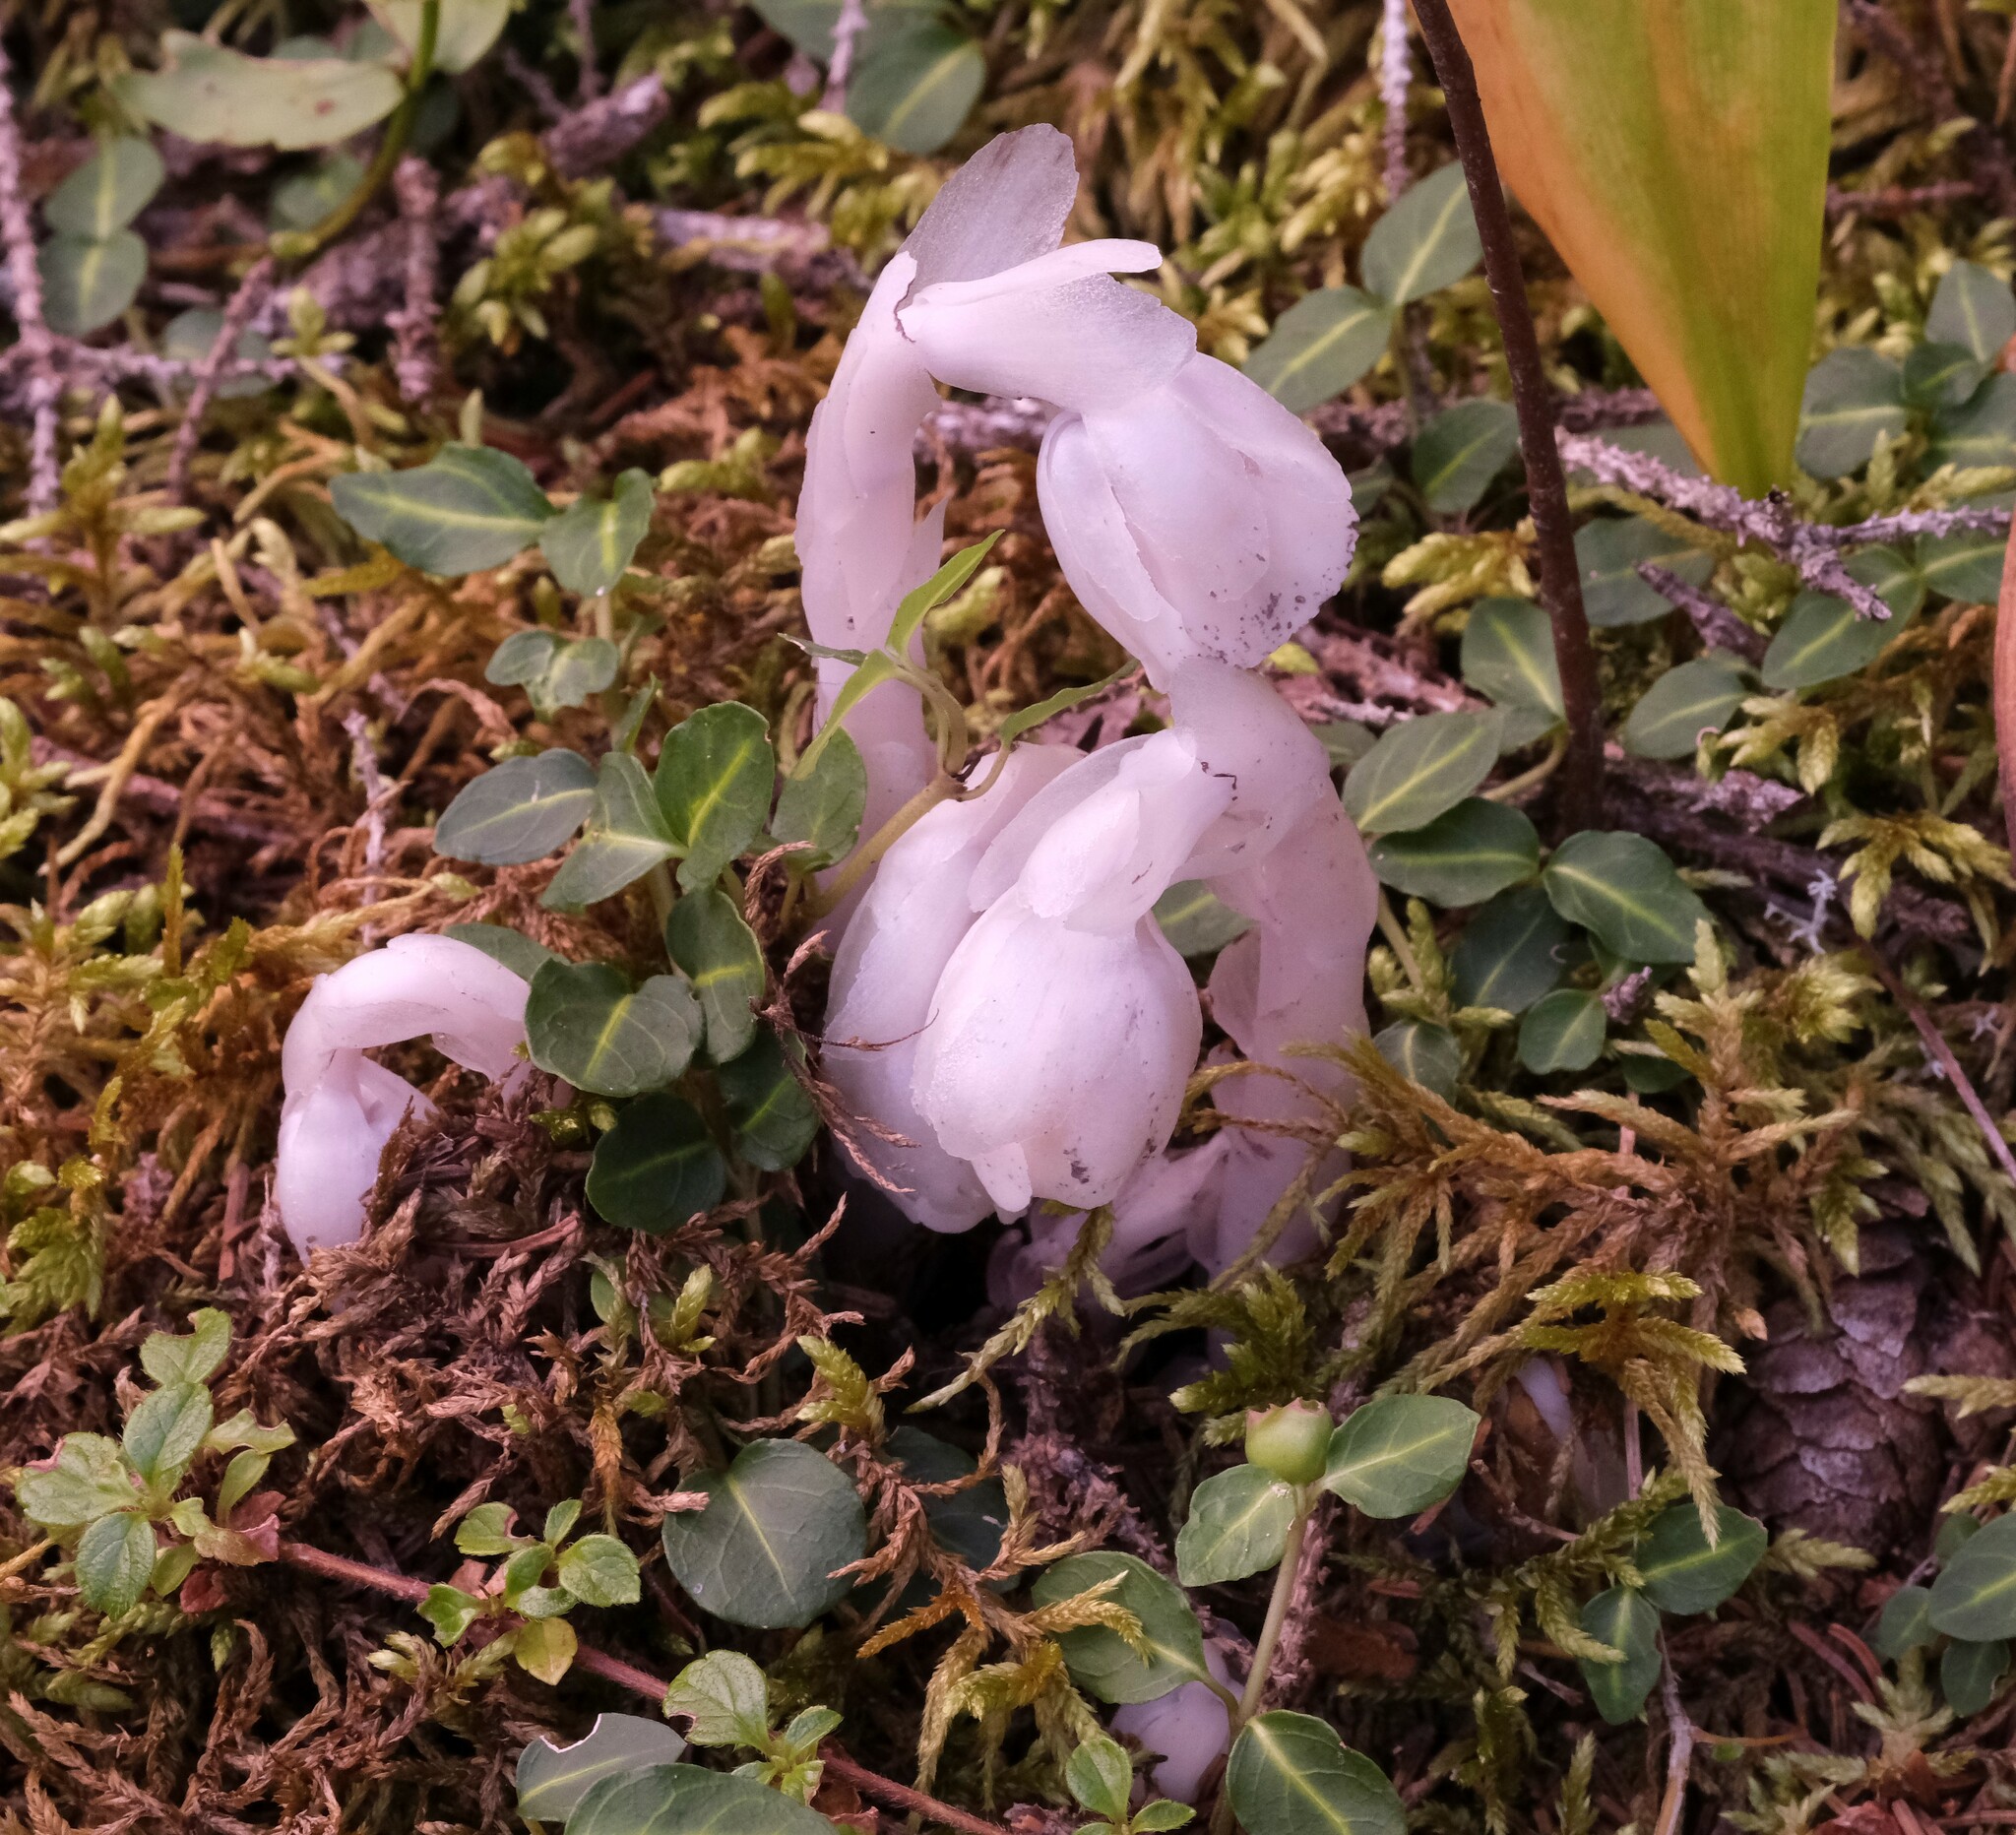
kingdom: Plantae
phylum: Tracheophyta
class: Magnoliopsida
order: Ericales
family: Ericaceae
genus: Monotropa
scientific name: Monotropa uniflora
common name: Convulsion root
